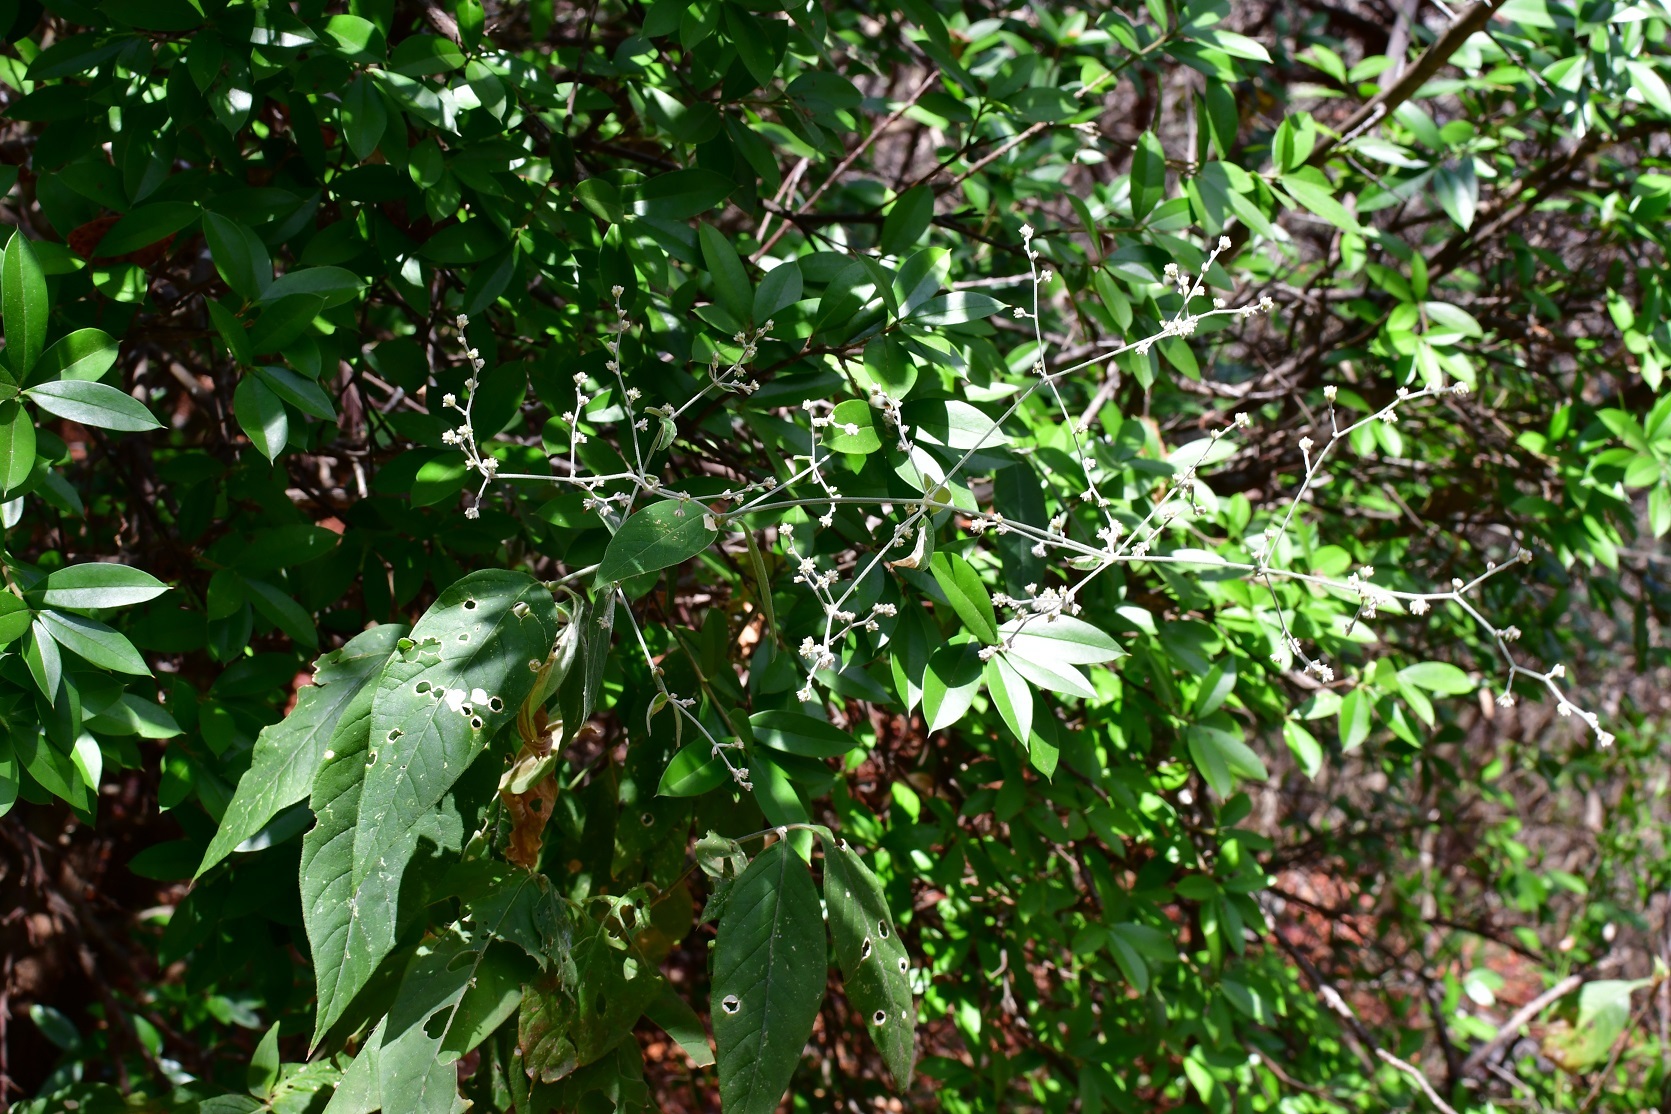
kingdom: Plantae
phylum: Tracheophyta
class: Magnoliopsida
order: Caryophyllales
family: Amaranthaceae
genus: Iresine
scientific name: Iresine latifolia
